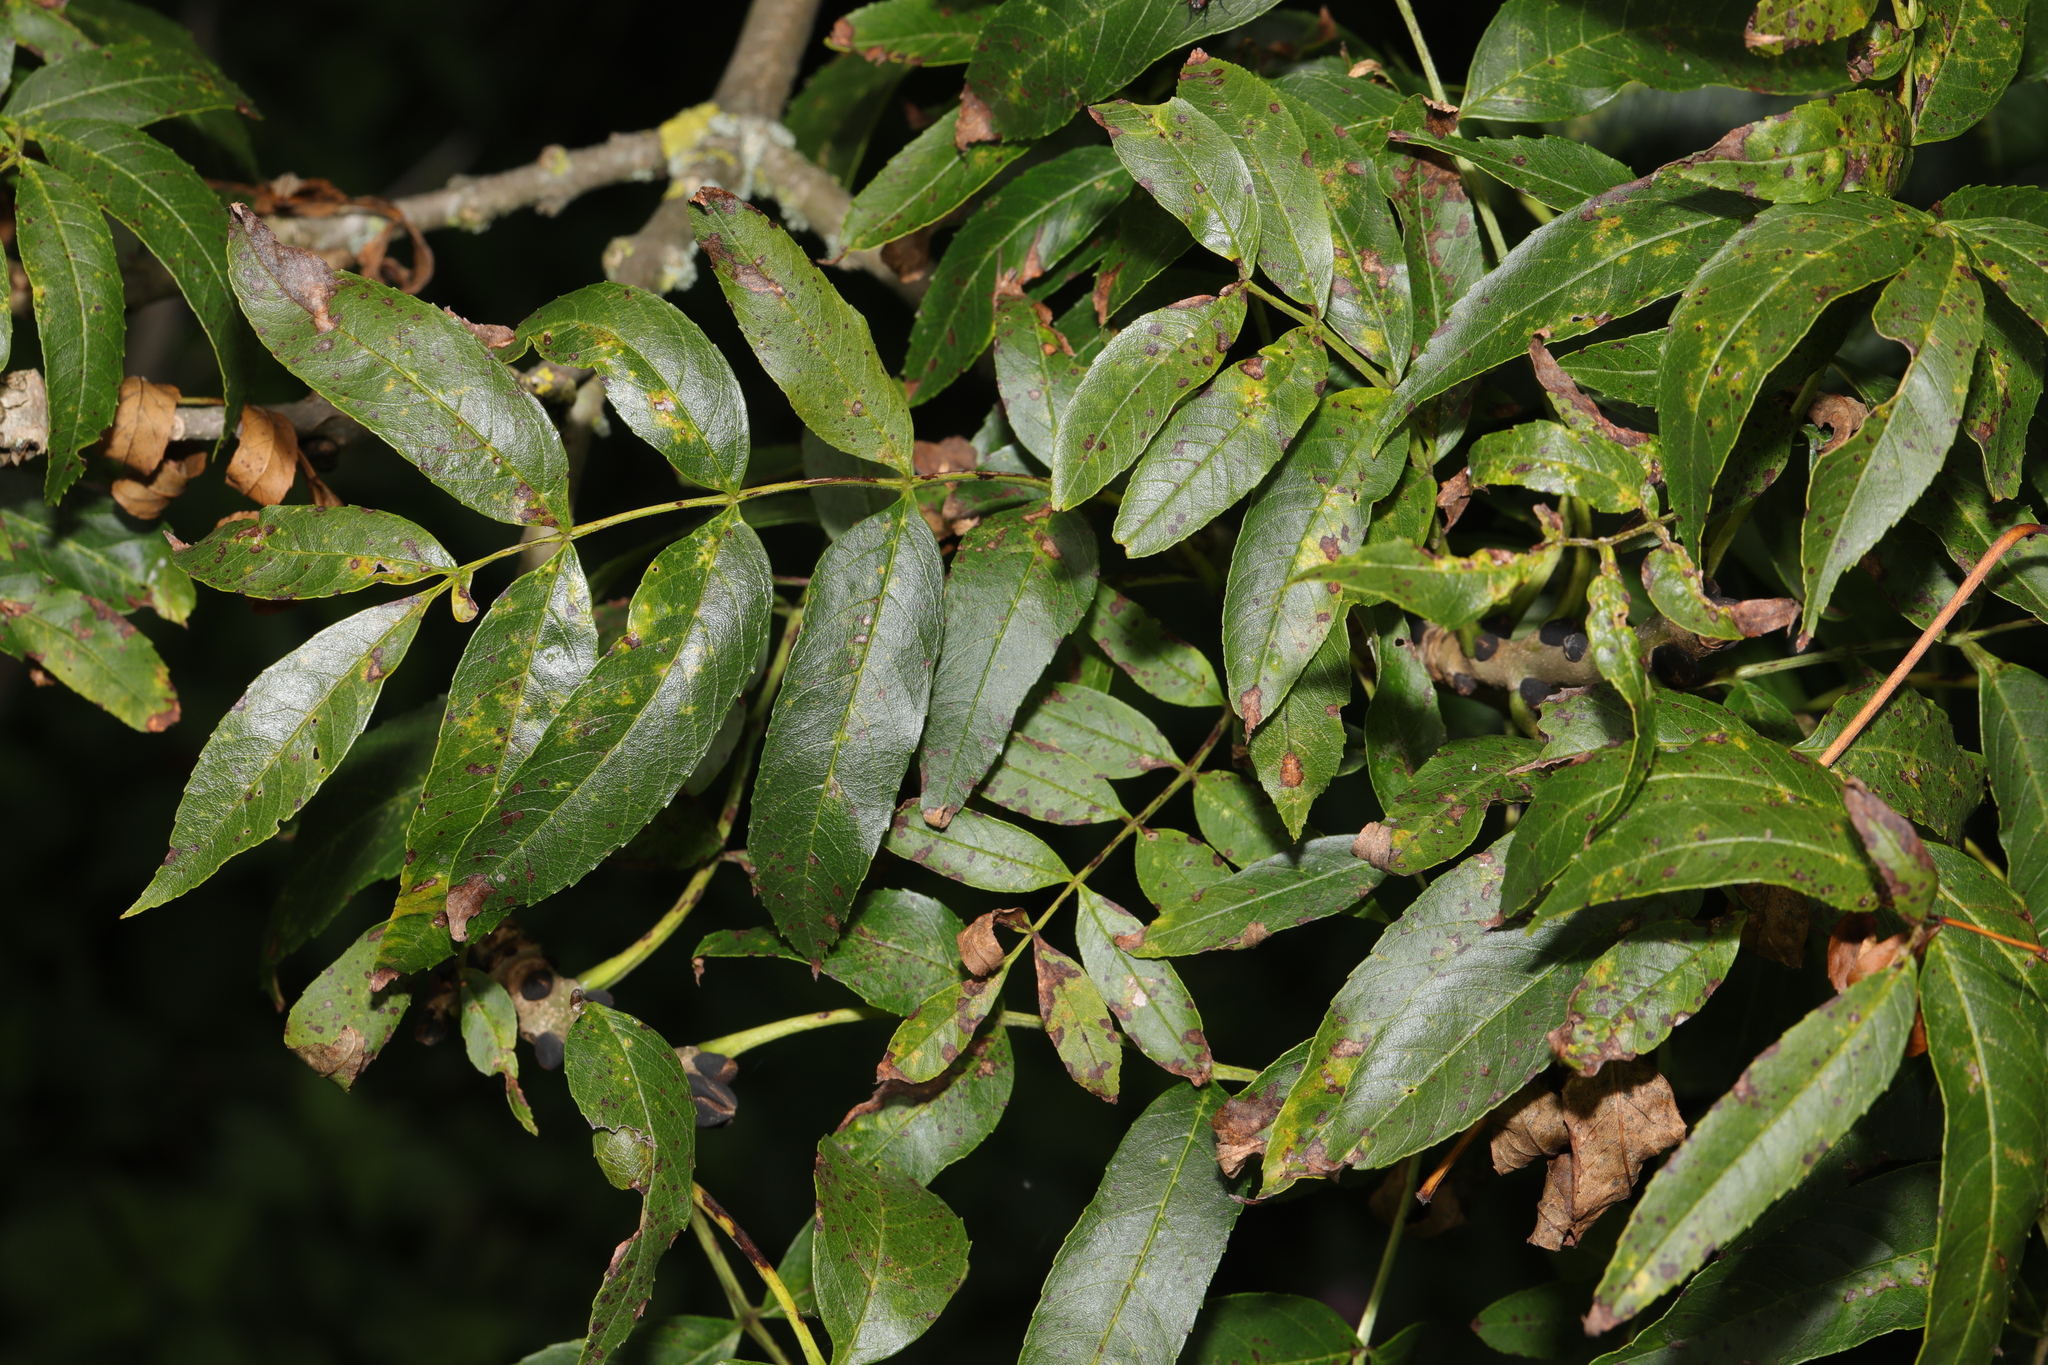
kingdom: Plantae
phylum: Tracheophyta
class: Magnoliopsida
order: Lamiales
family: Oleaceae
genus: Fraxinus
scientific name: Fraxinus excelsior
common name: European ash
